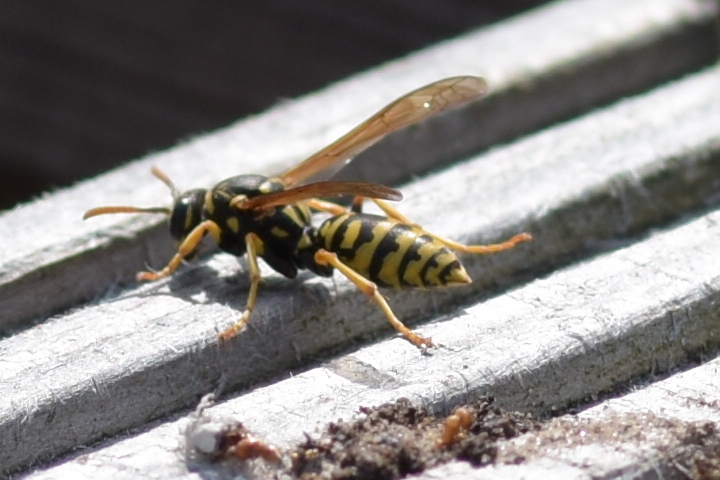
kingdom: Animalia
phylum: Arthropoda
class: Insecta
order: Hymenoptera
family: Eumenidae
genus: Polistes
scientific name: Polistes dominula
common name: Paper wasp
